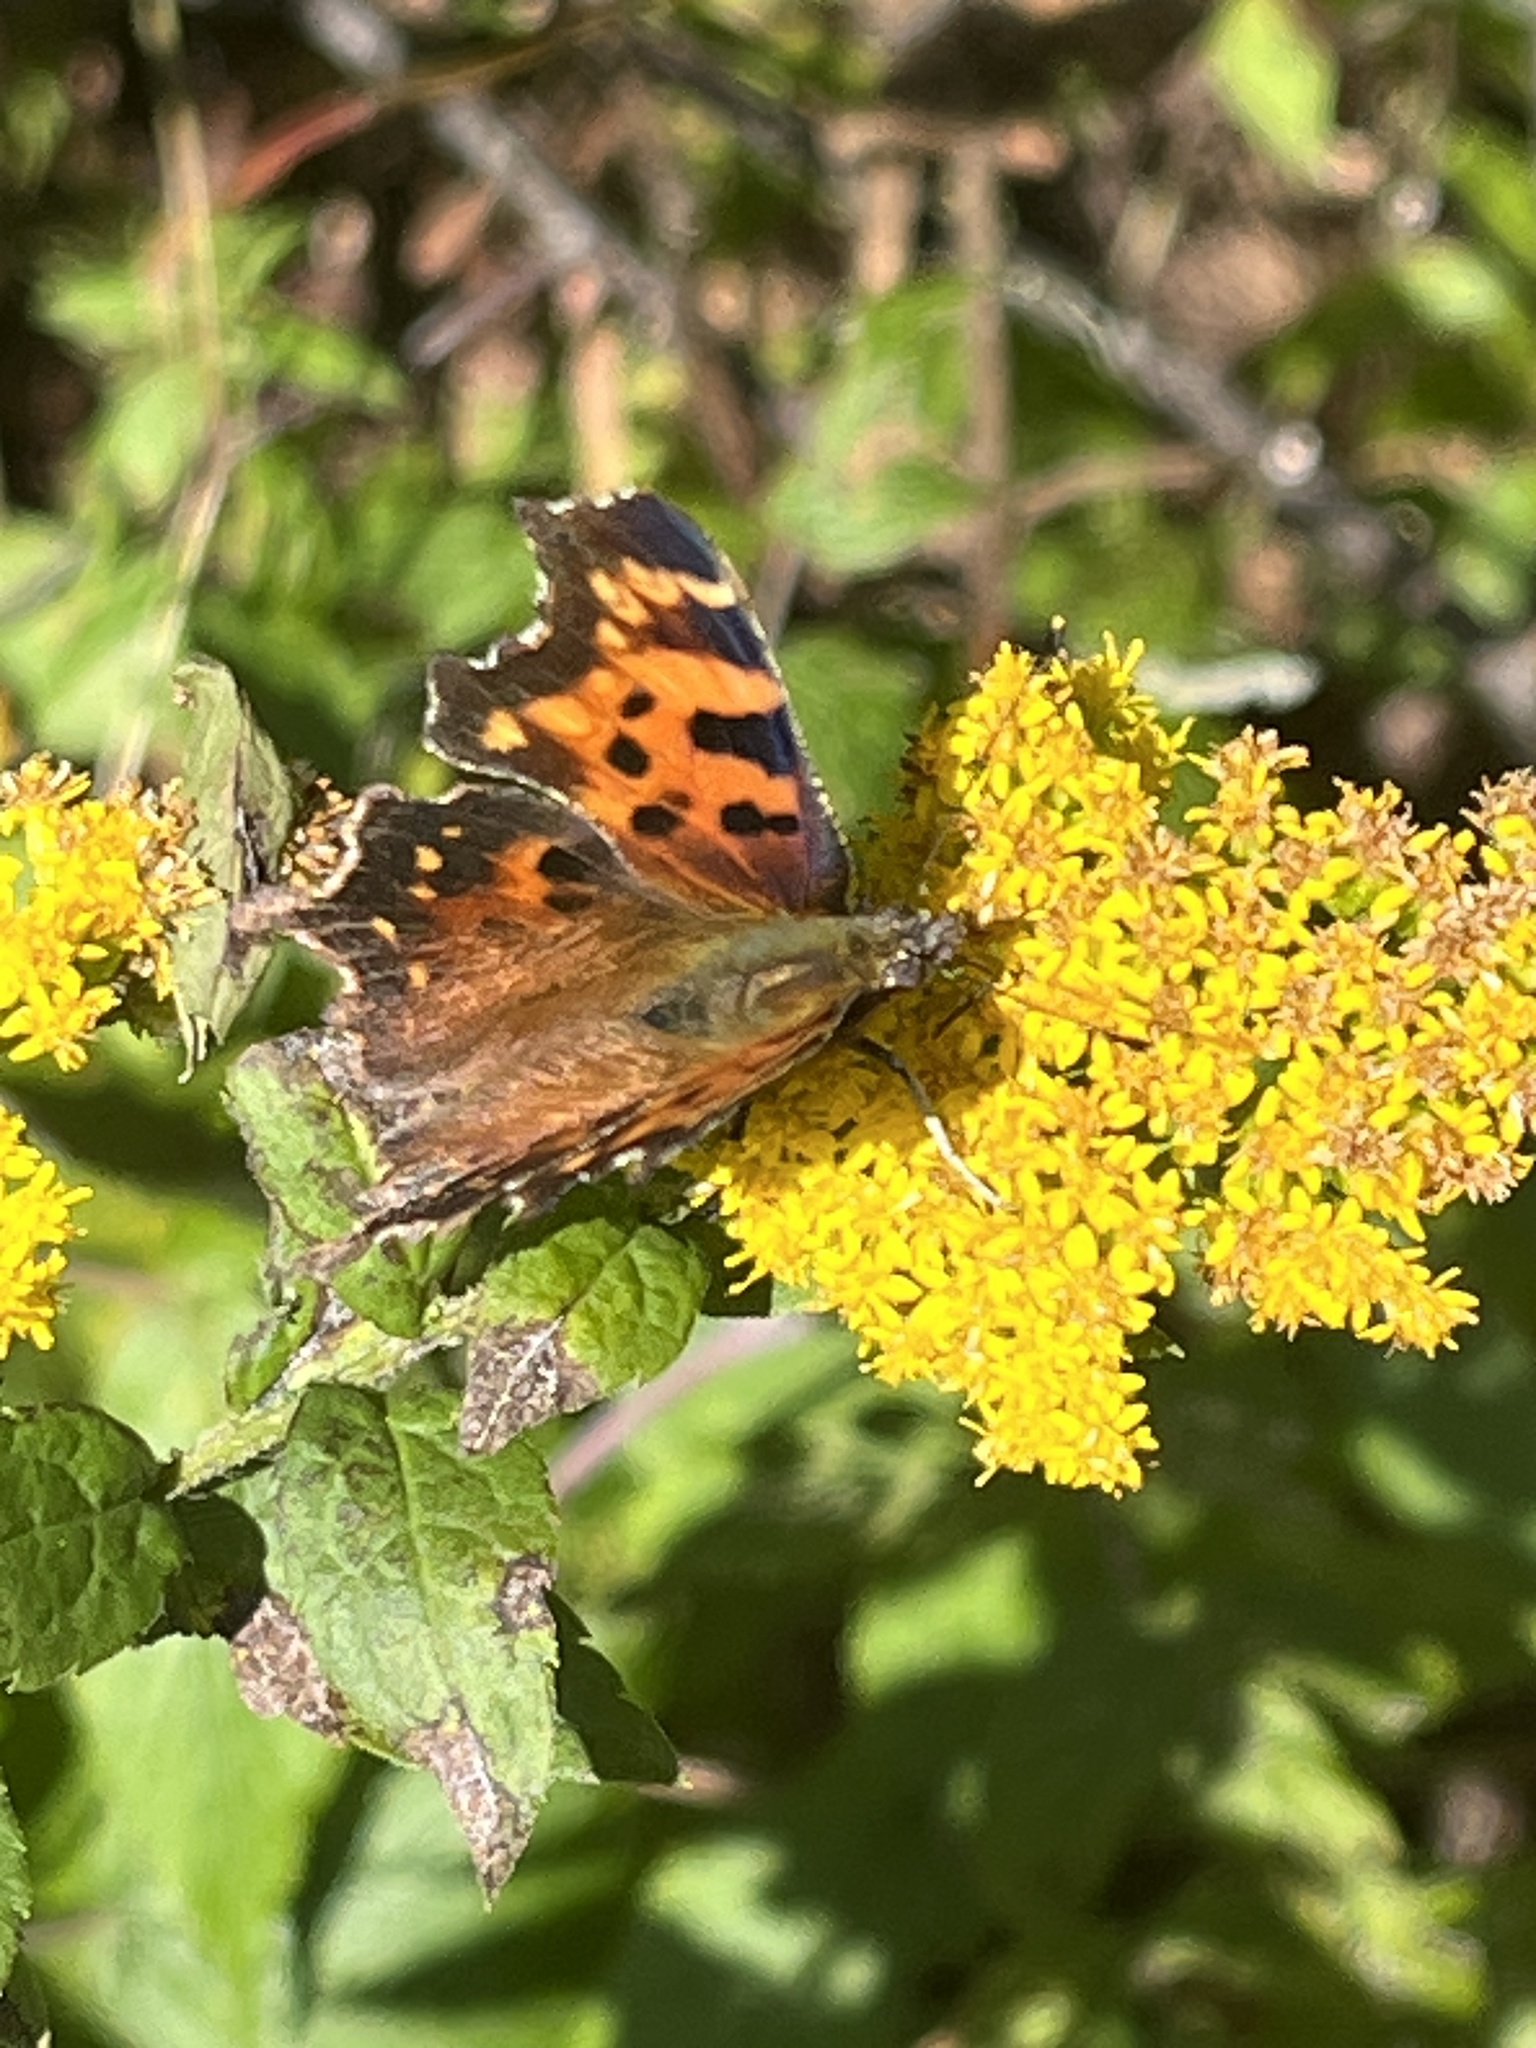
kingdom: Animalia
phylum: Arthropoda
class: Insecta
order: Lepidoptera
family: Nymphalidae
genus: Polygonia
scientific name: Polygonia faunus
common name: Green comma
